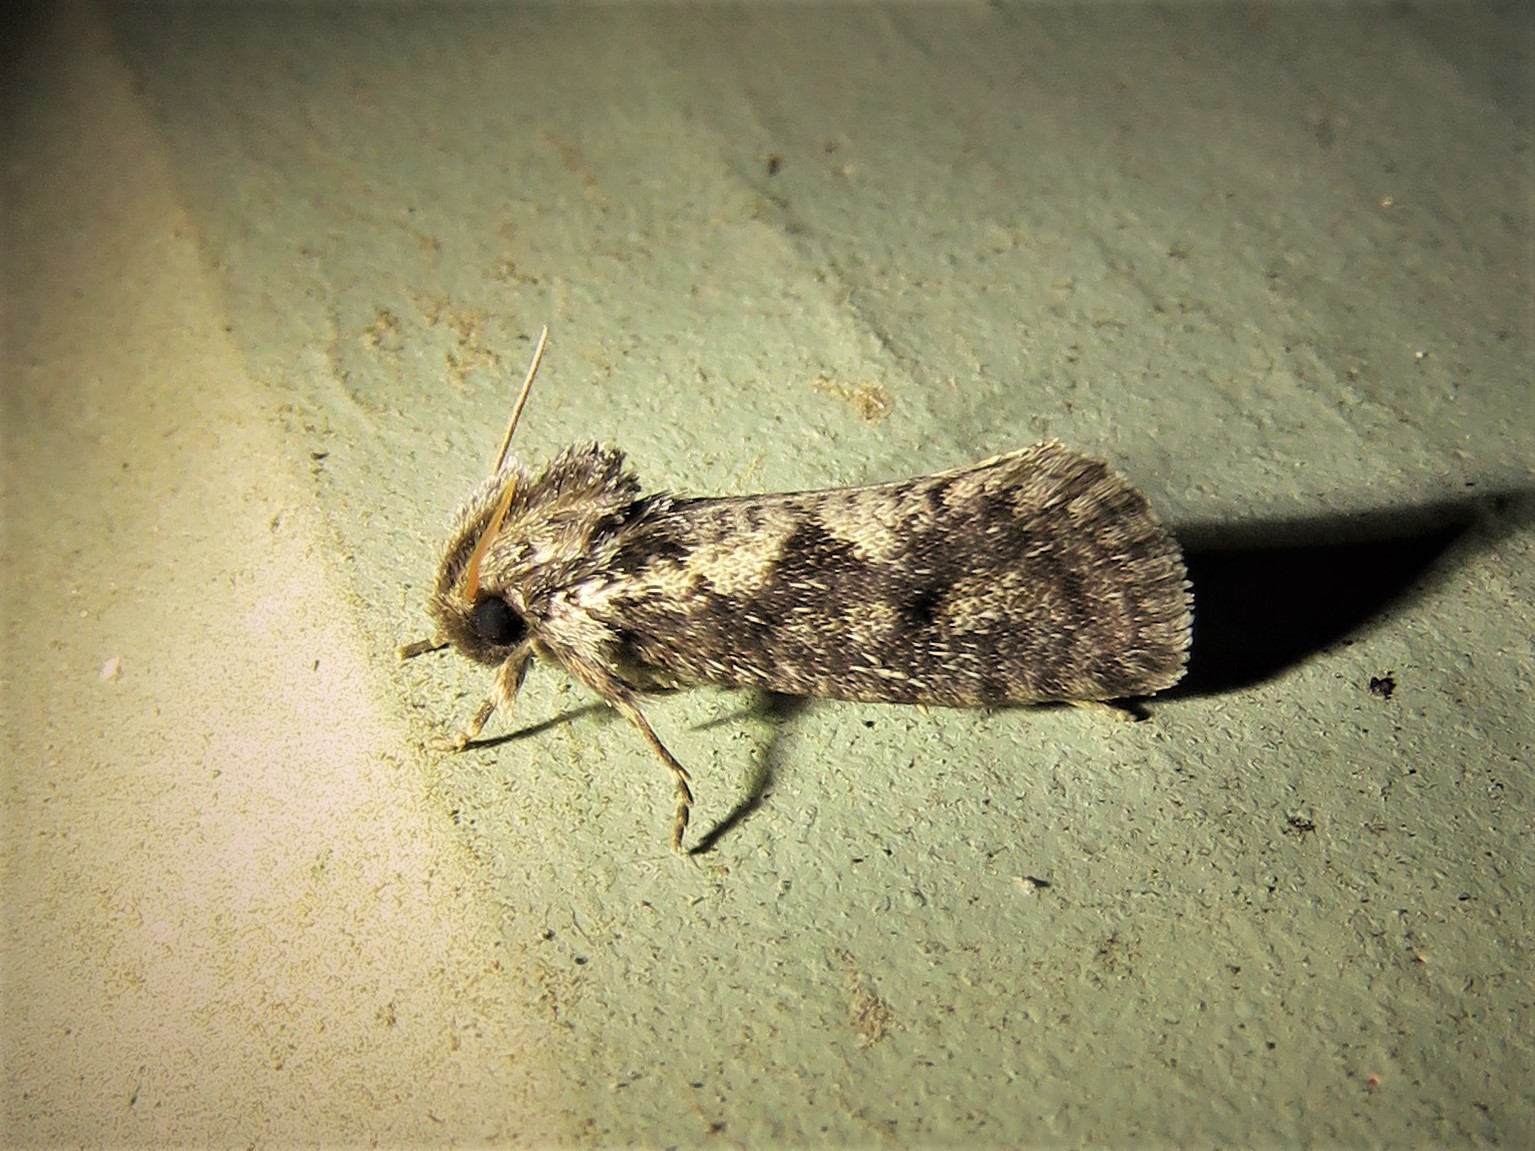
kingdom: Animalia
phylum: Arthropoda
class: Insecta
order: Lepidoptera
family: Tineidae
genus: Acrolophus
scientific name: Acrolophus popeanella
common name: Clemens' grass tubeworm moth
